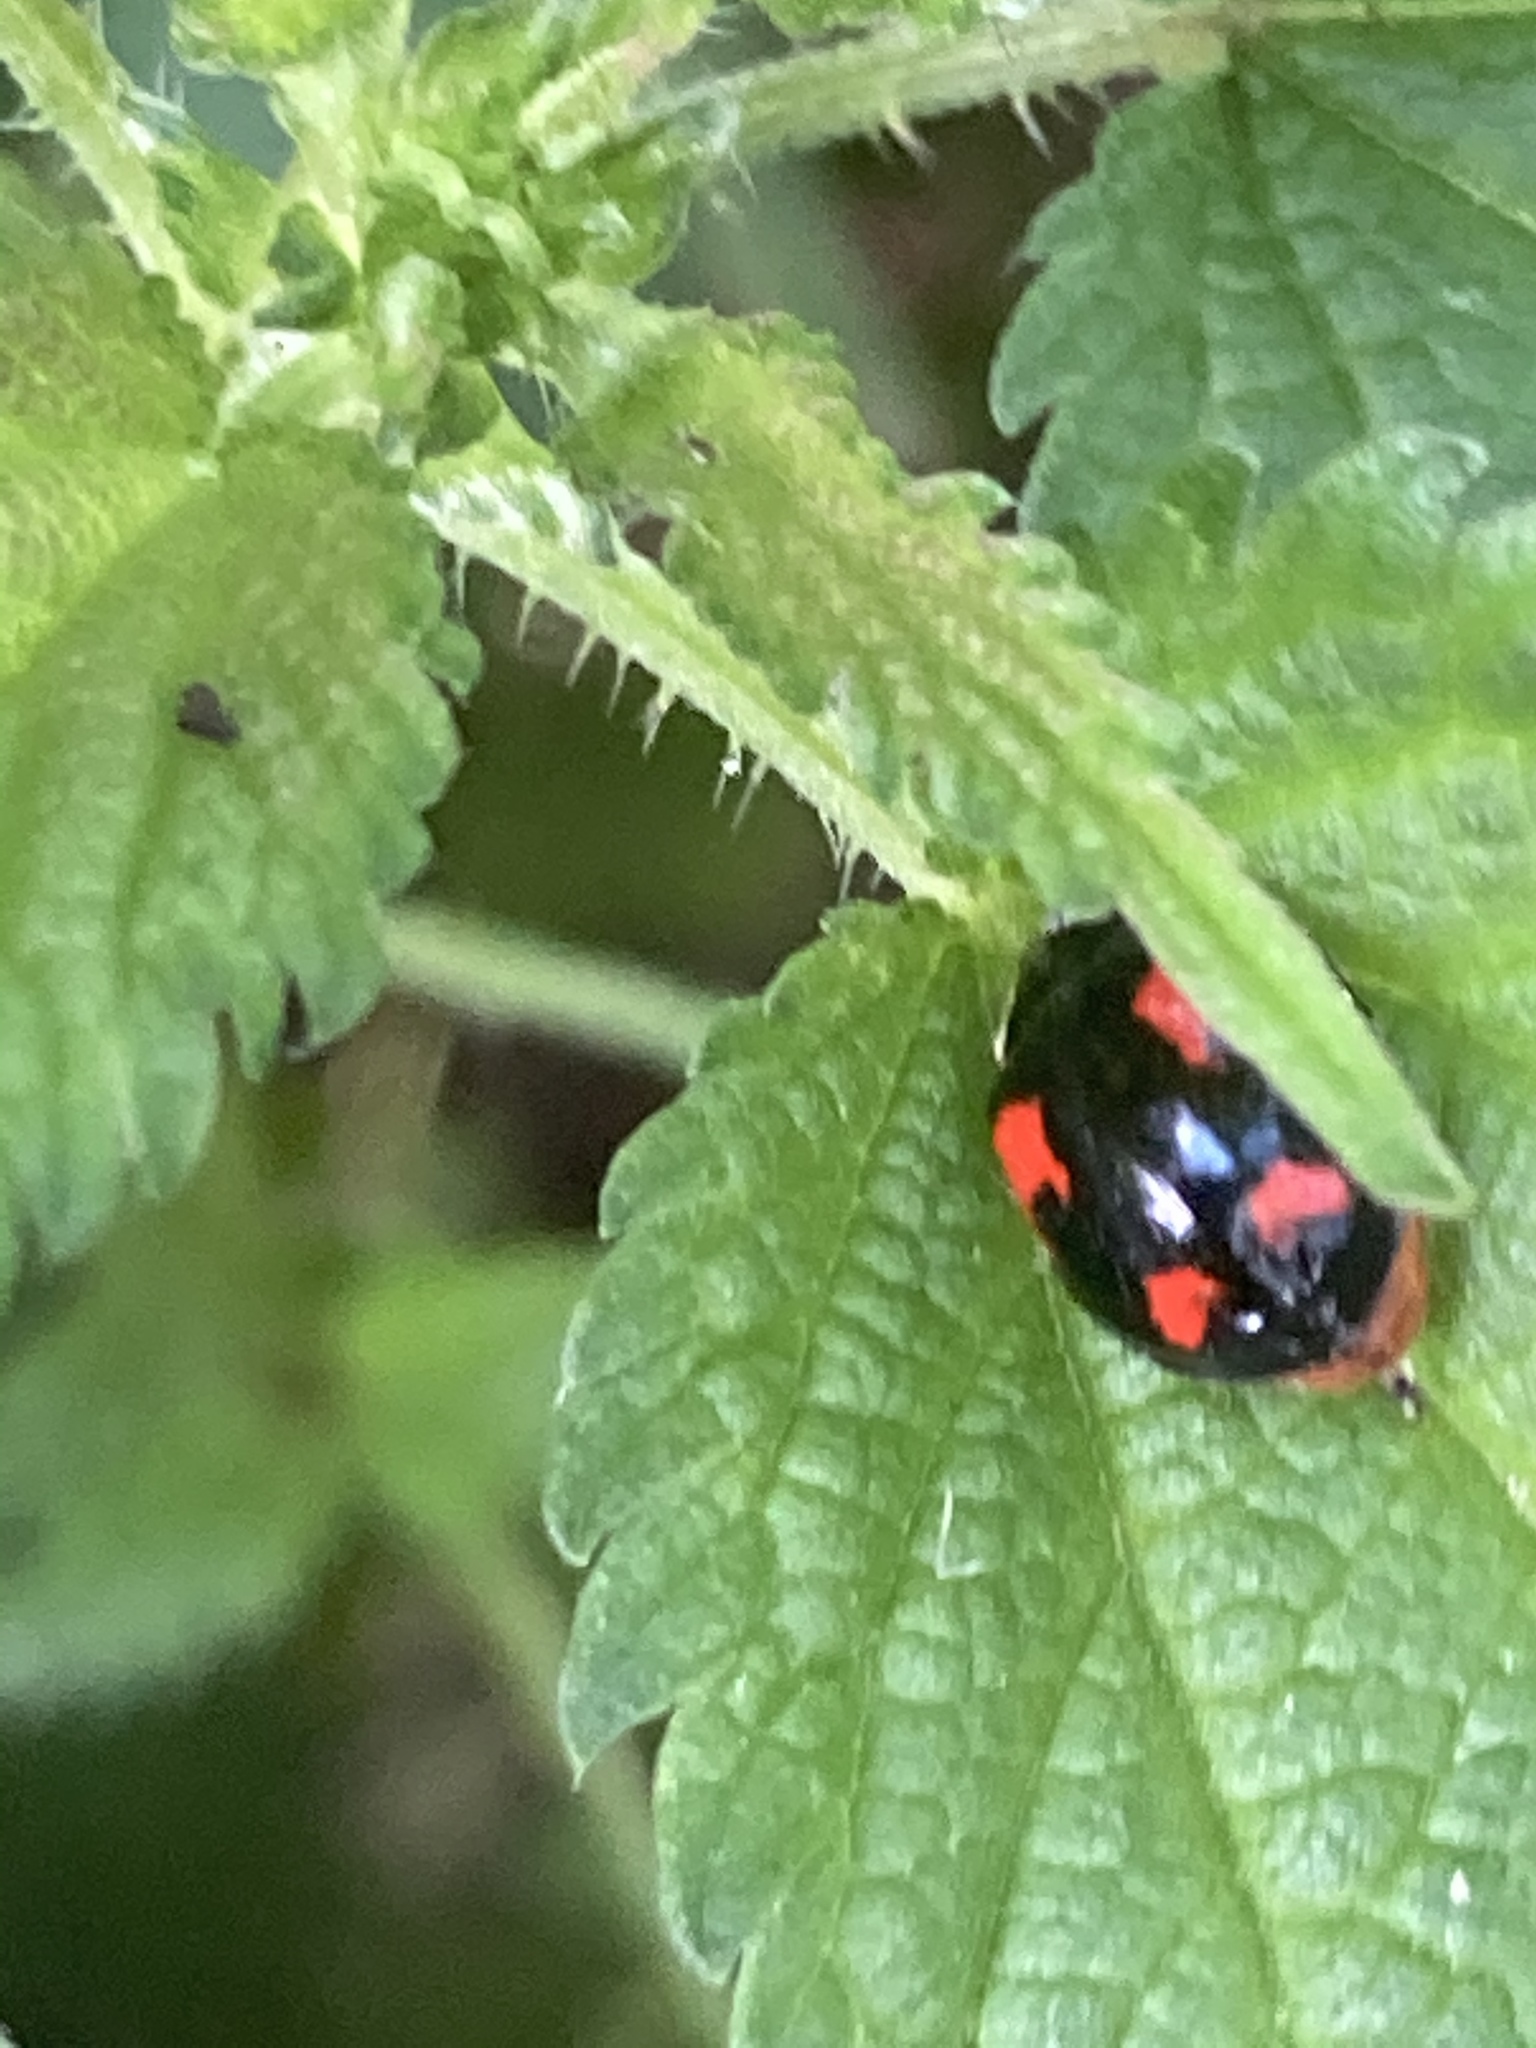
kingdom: Animalia
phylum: Arthropoda
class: Insecta
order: Coleoptera
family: Coccinellidae
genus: Harmonia
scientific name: Harmonia axyridis
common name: Harlequin ladybird
